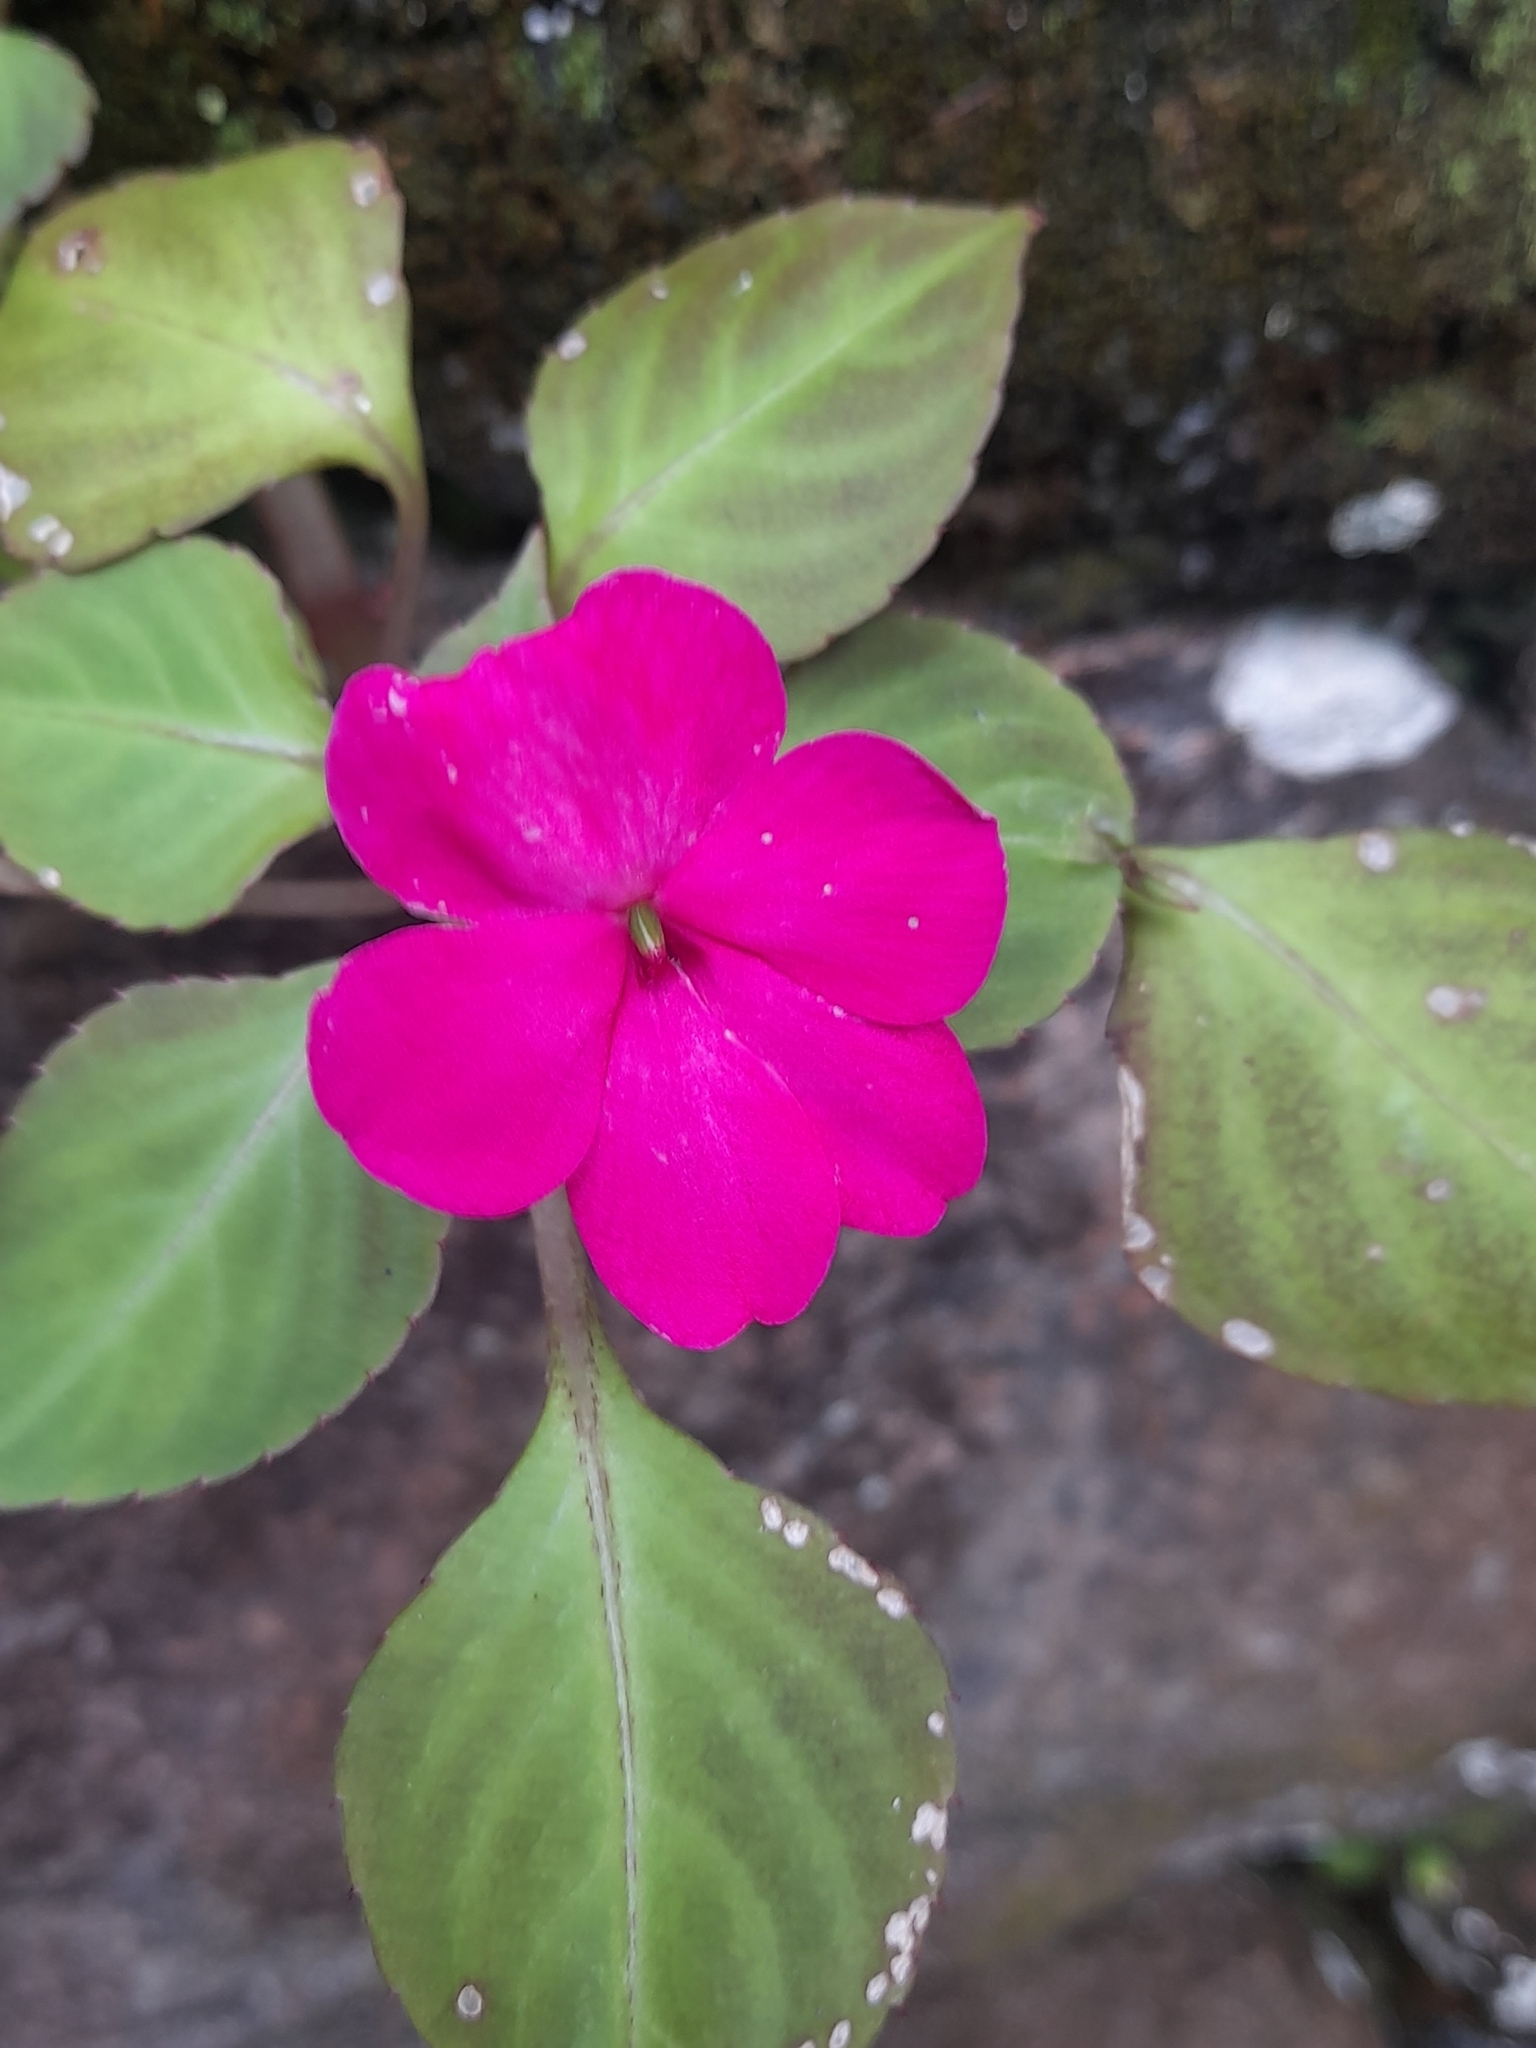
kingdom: Plantae
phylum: Tracheophyta
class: Magnoliopsida
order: Ericales
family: Balsaminaceae
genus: Impatiens
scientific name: Impatiens walleriana
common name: Buzzy lizzy
